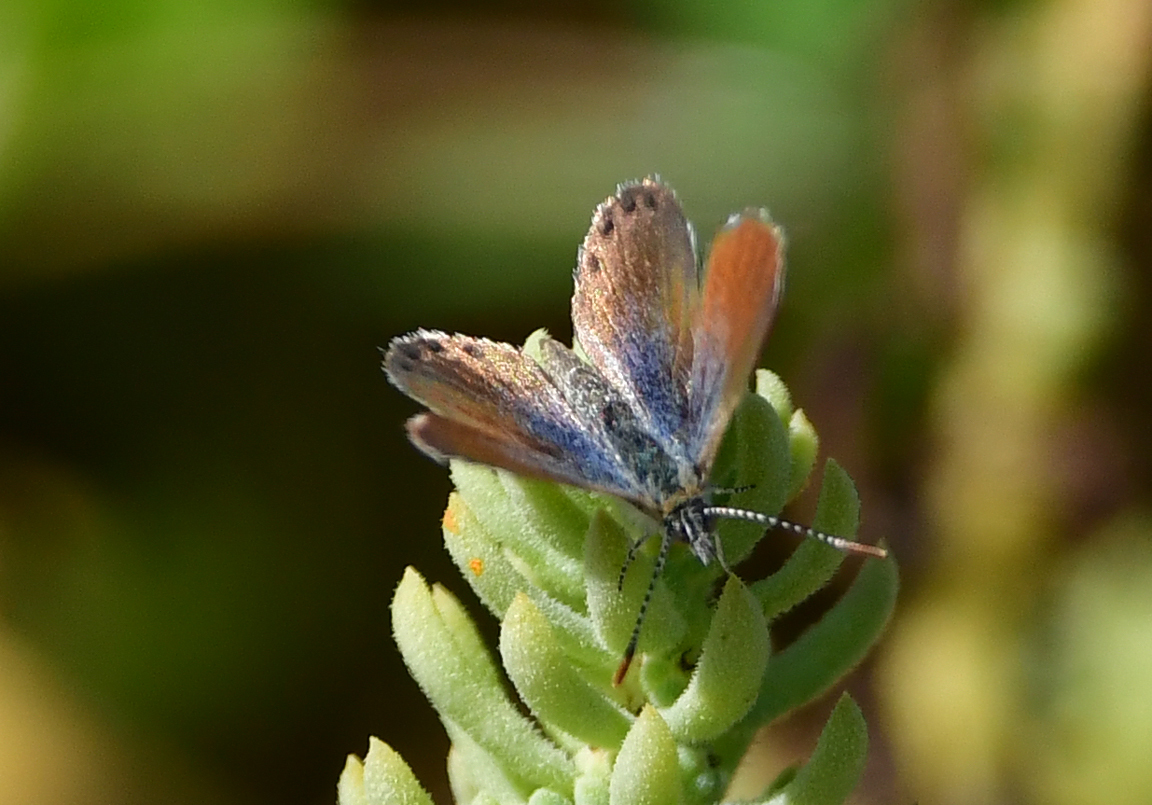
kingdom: Animalia
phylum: Arthropoda
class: Insecta
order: Lepidoptera
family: Lycaenidae
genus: Brephidium
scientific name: Brephidium exilis
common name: Pygmy blue
